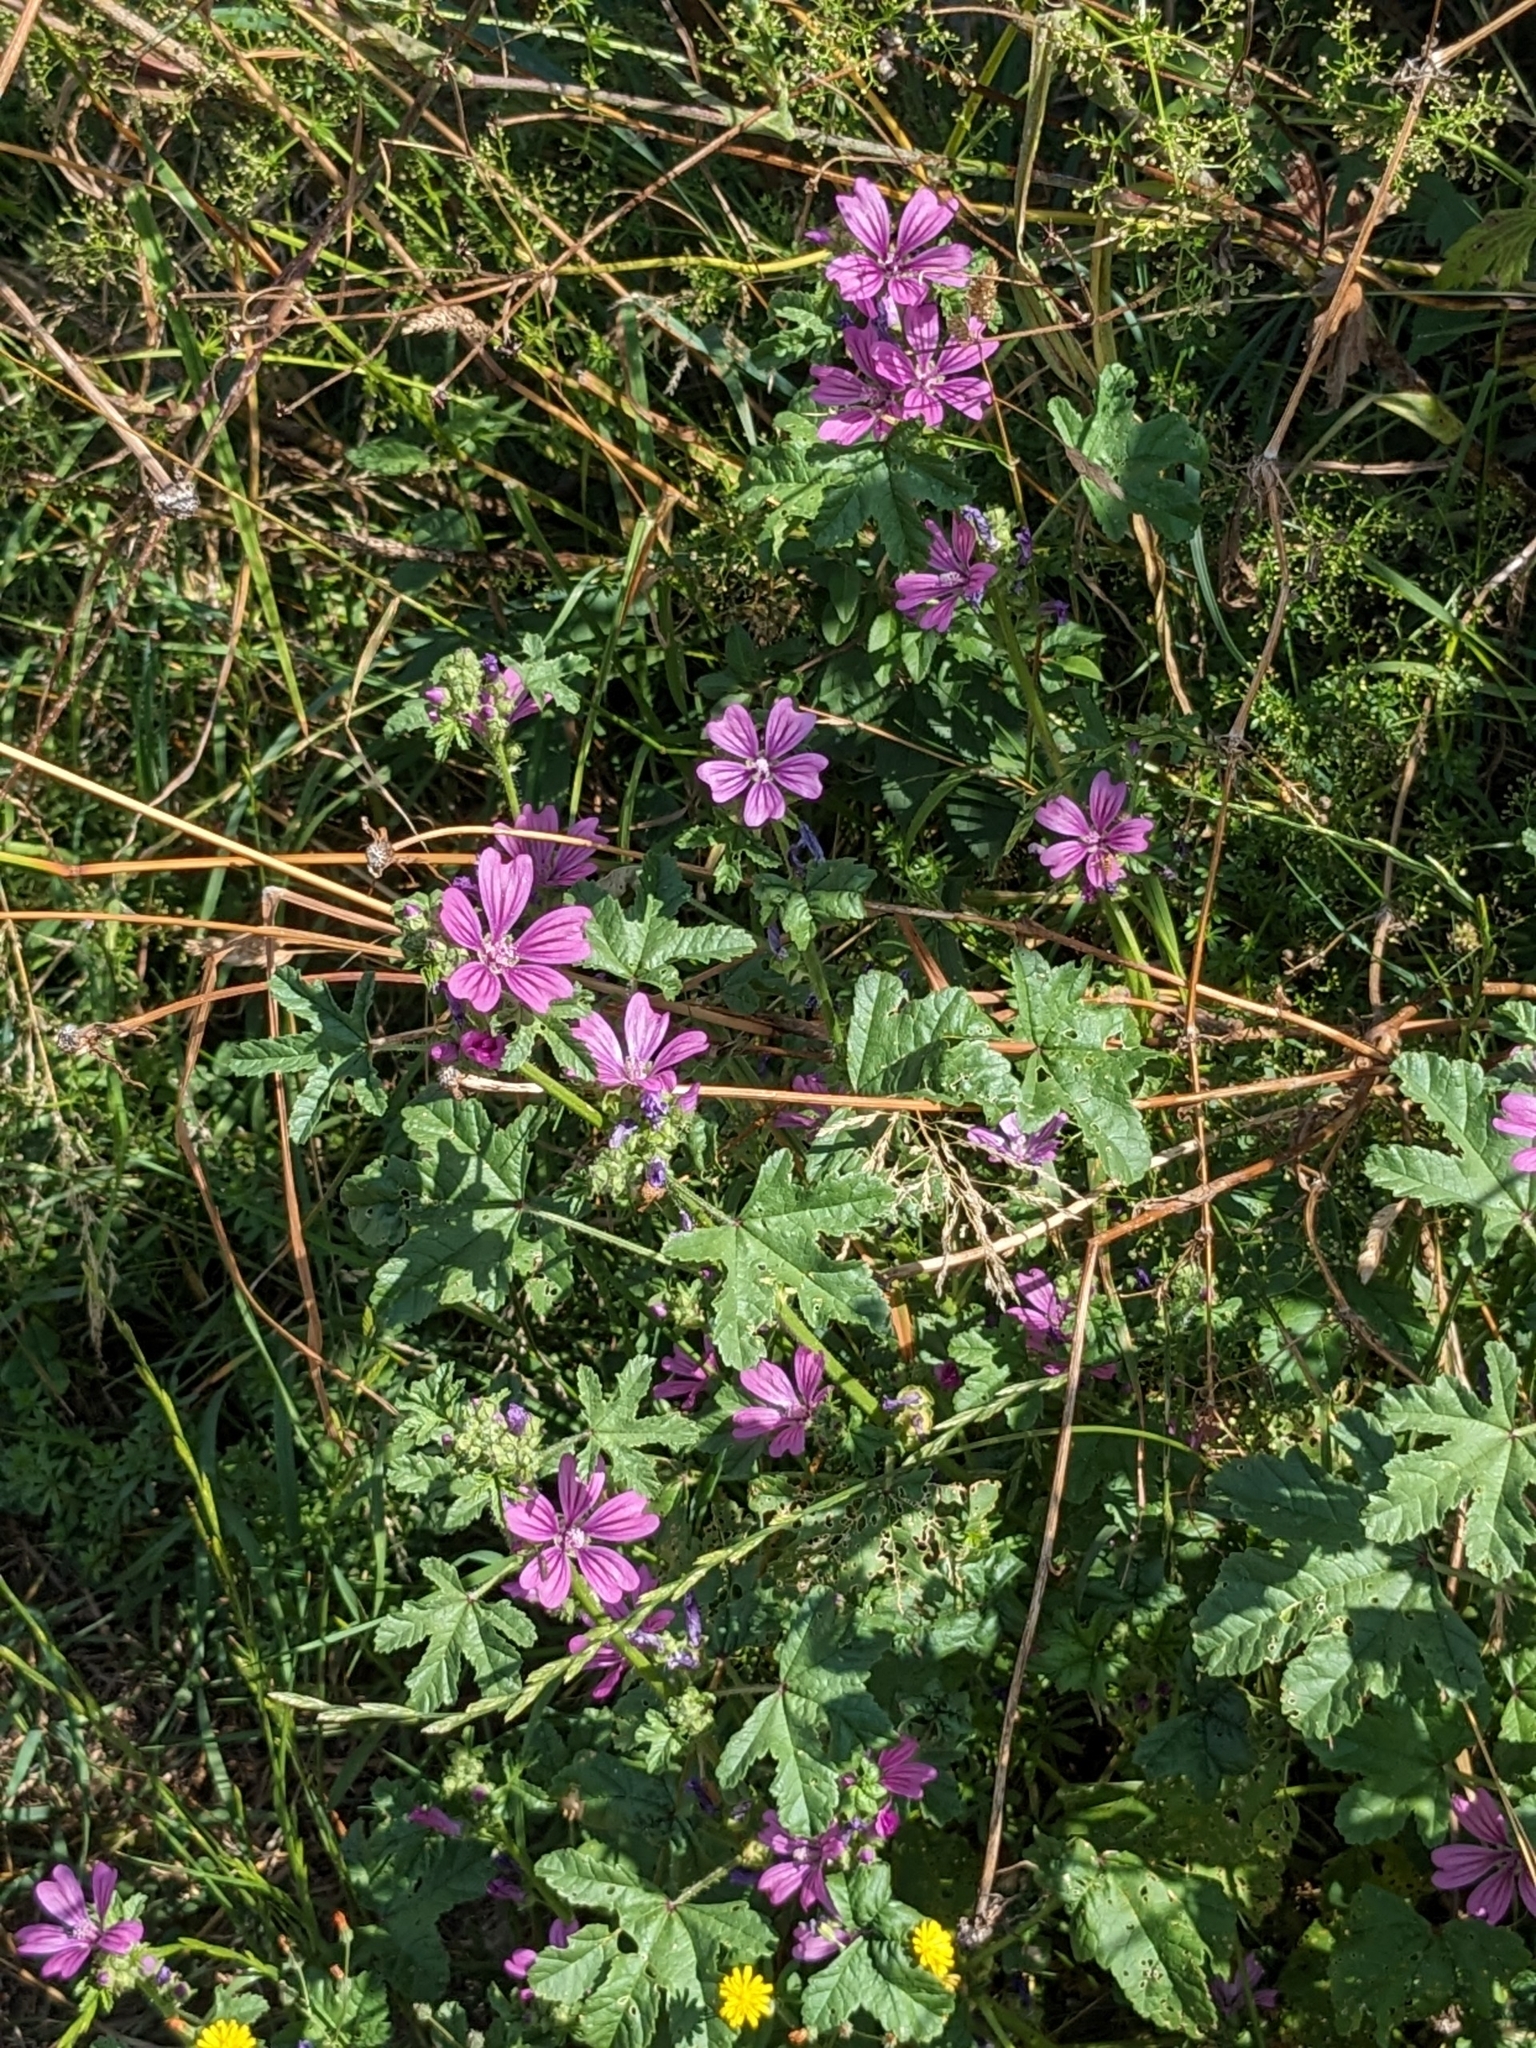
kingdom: Plantae
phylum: Tracheophyta
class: Magnoliopsida
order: Malvales
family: Malvaceae
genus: Malva
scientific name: Malva sylvestris
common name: Common mallow
